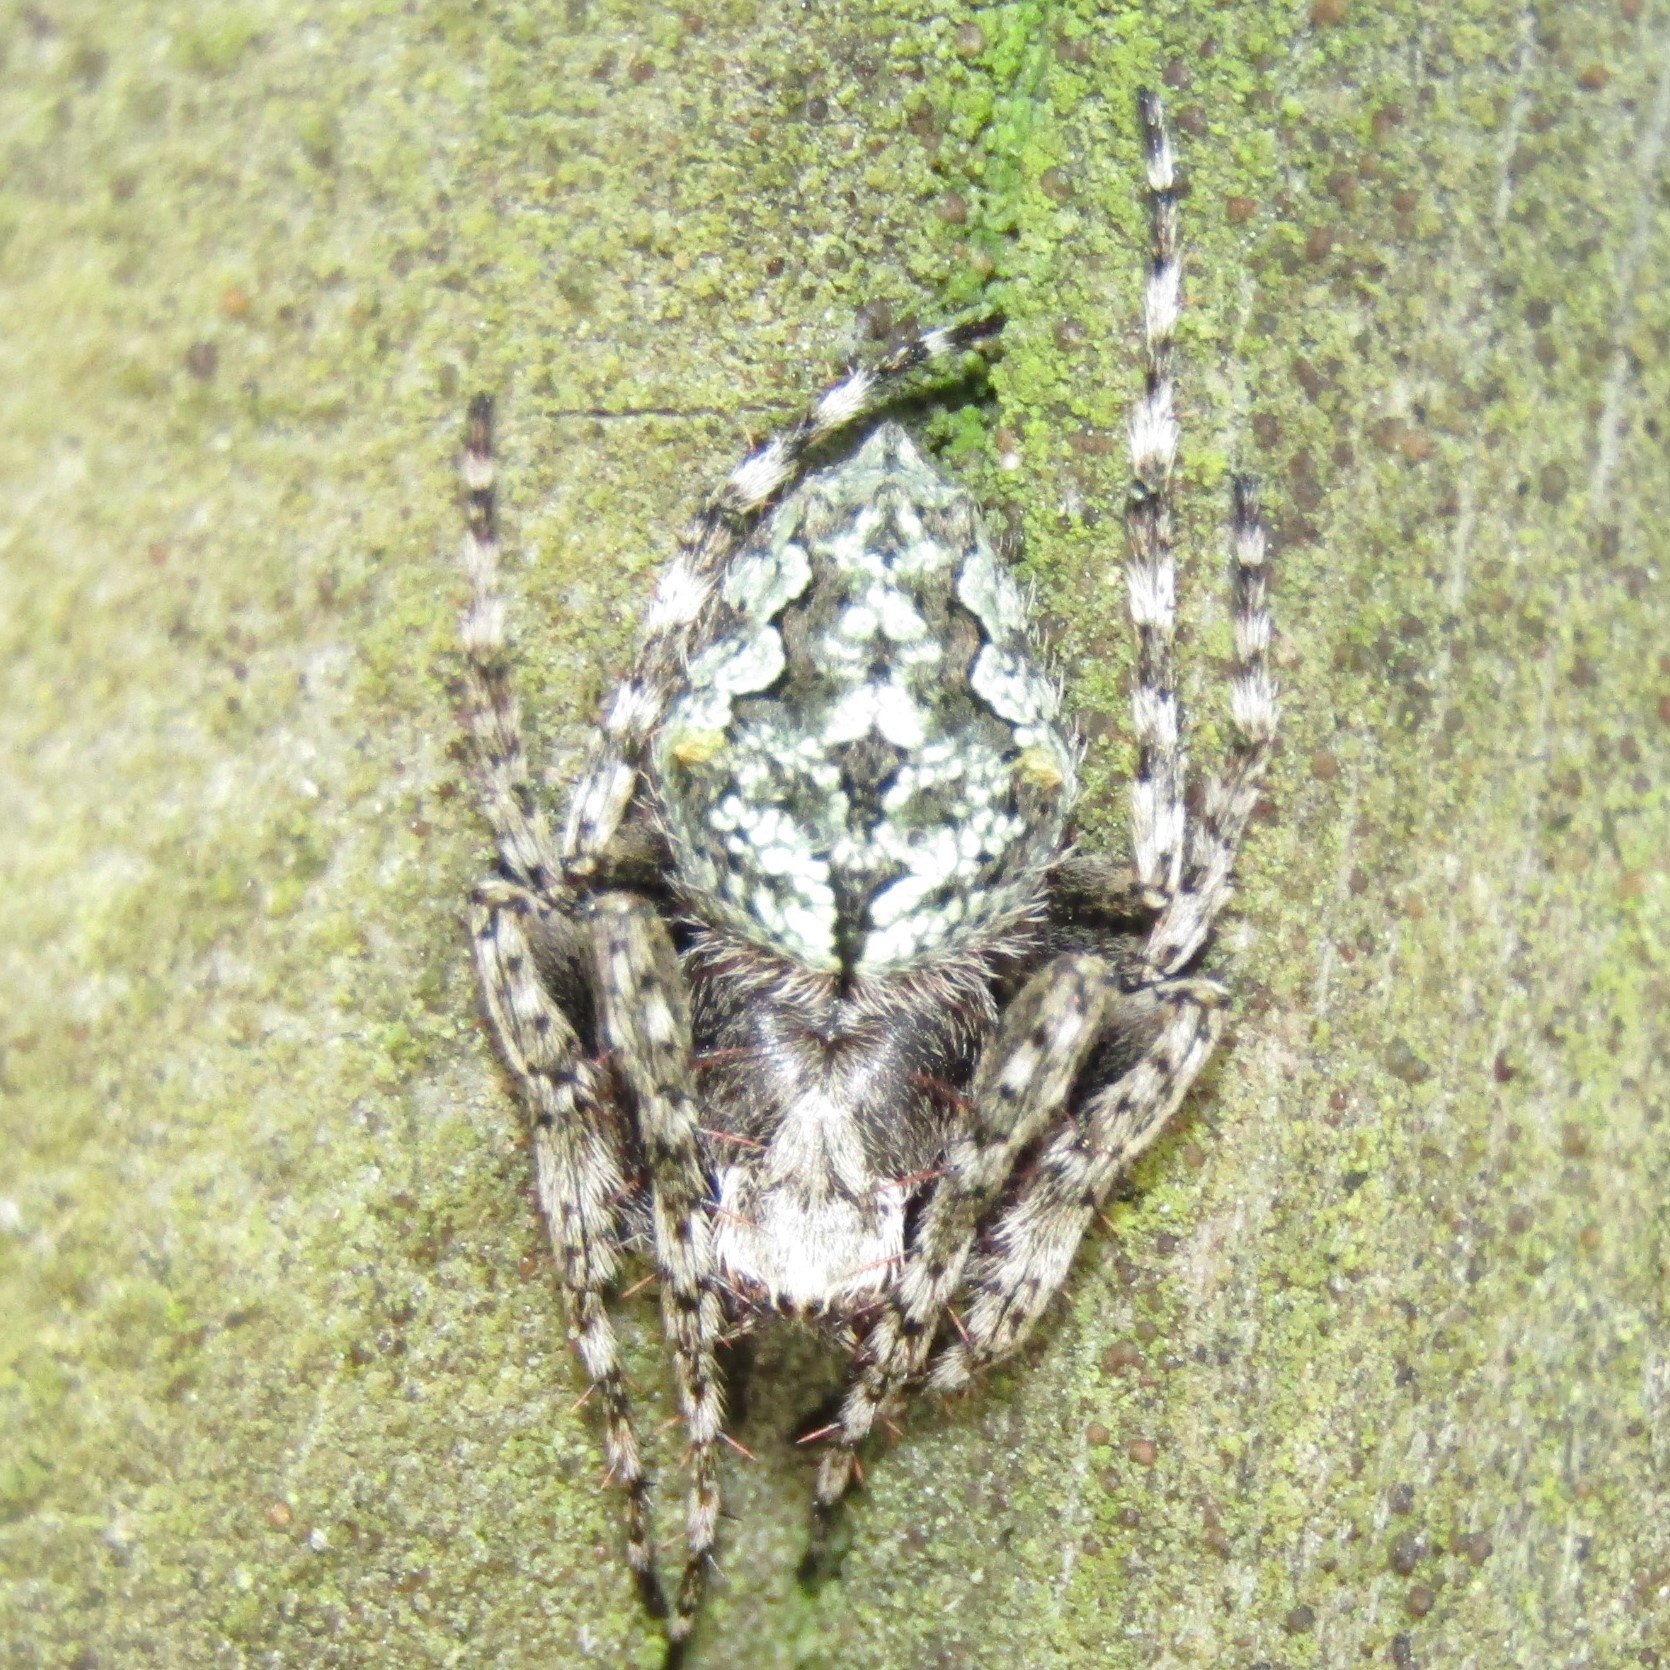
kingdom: Animalia
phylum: Arthropoda
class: Arachnida
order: Araneae
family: Araneidae
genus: Eriophora
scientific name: Eriophora pustulosa
